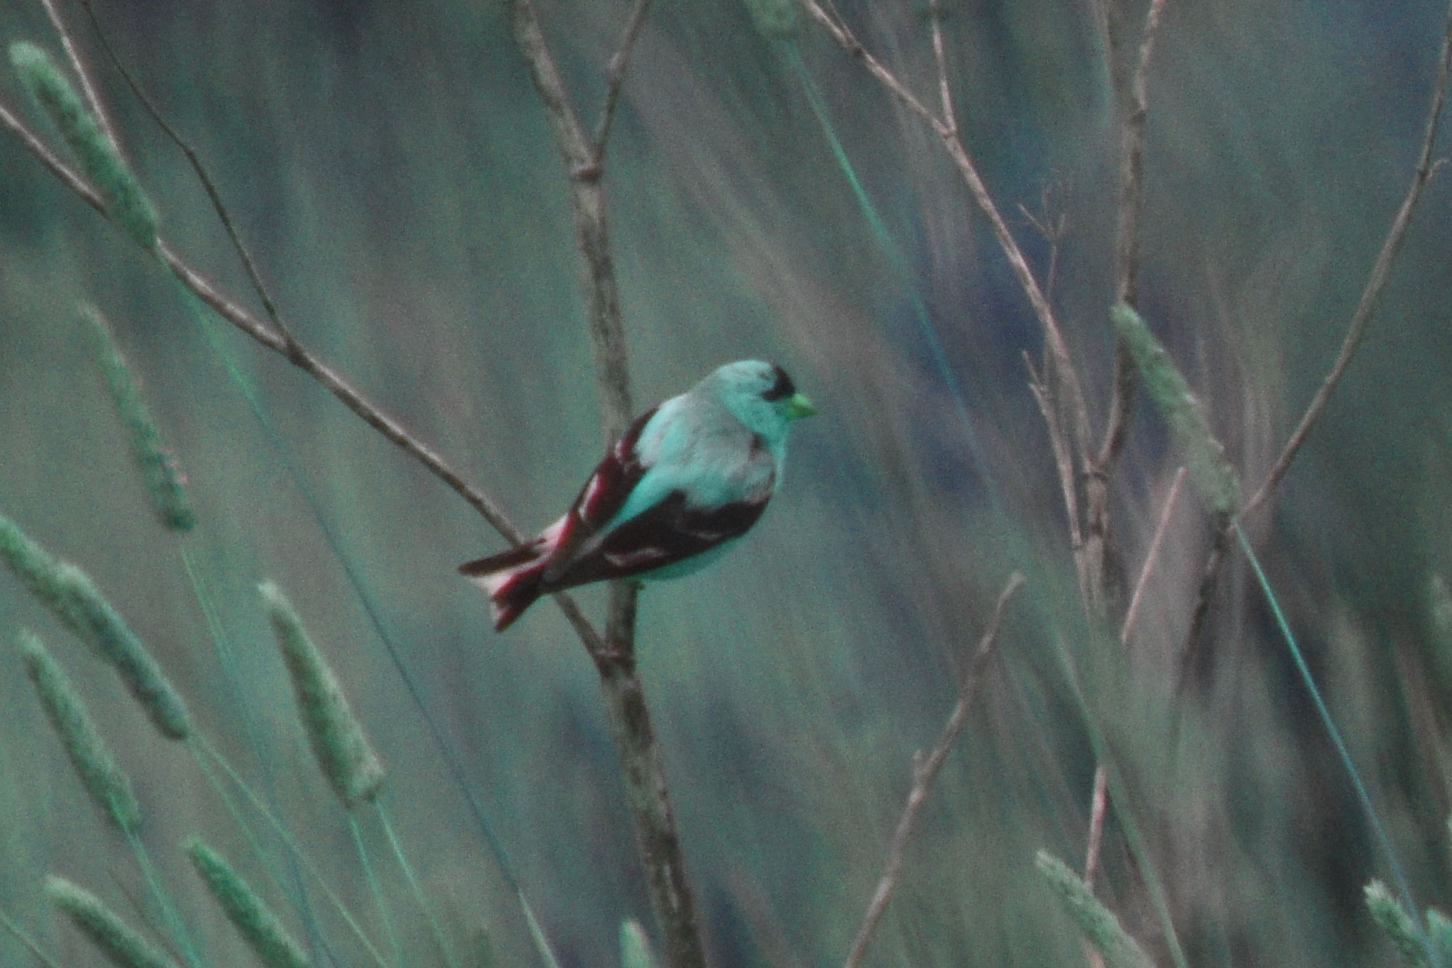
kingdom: Animalia
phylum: Chordata
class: Aves
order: Passeriformes
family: Fringillidae
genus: Spinus
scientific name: Spinus tristis
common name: American goldfinch
